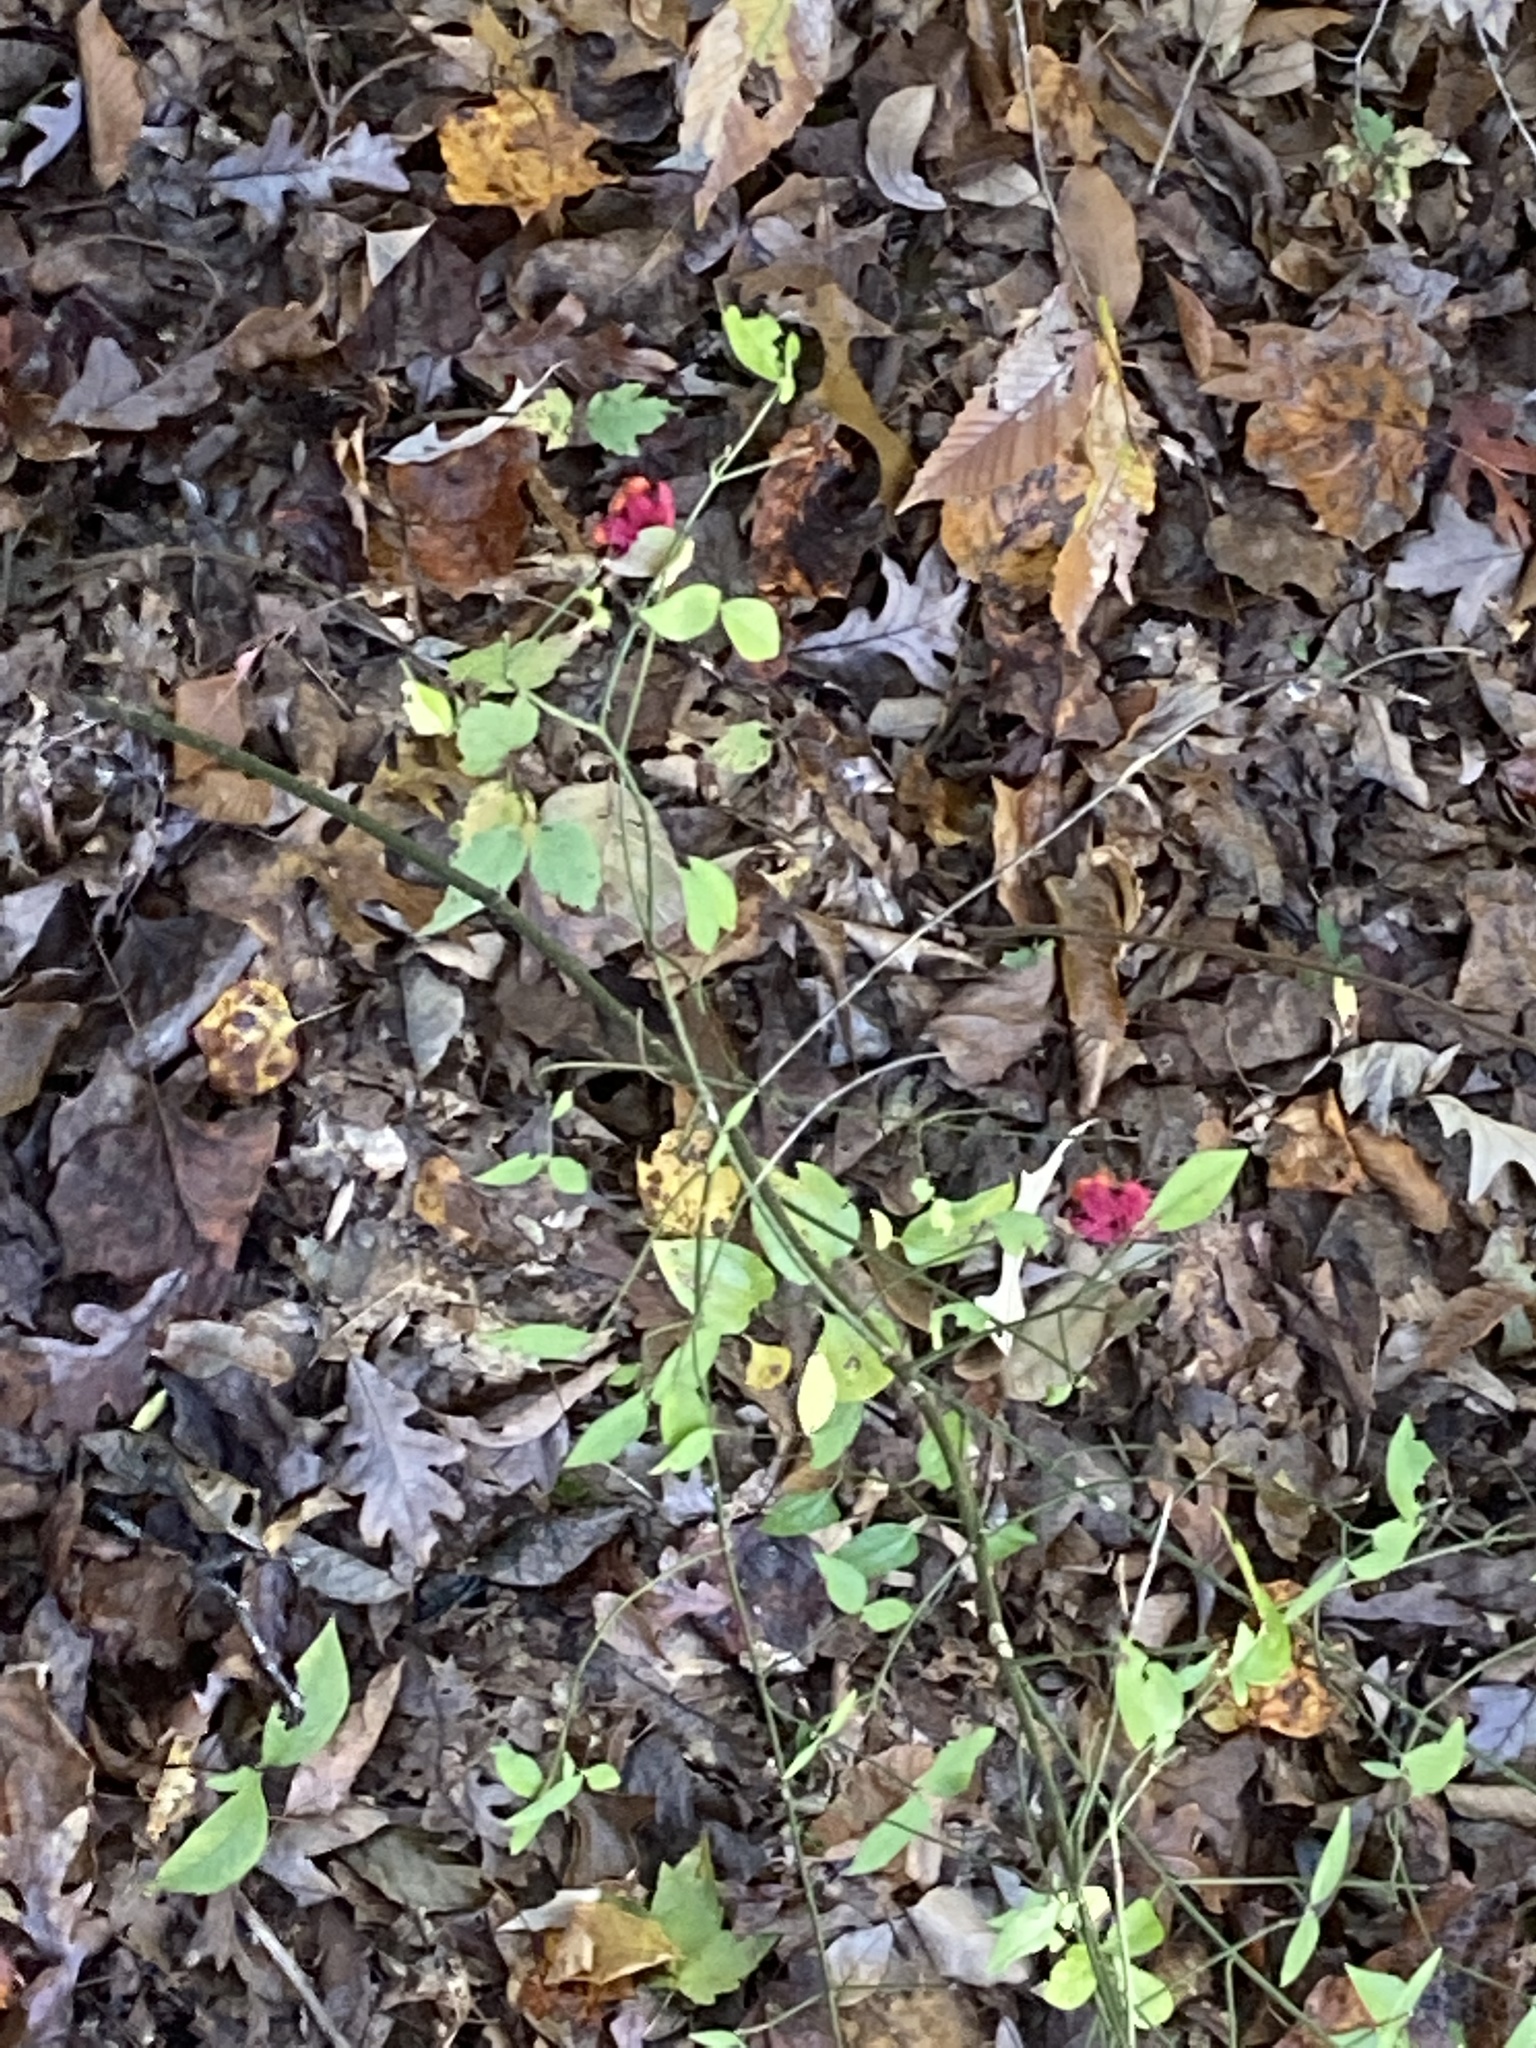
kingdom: Plantae
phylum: Tracheophyta
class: Magnoliopsida
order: Celastrales
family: Celastraceae
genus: Euonymus
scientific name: Euonymus americanus
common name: Bursting-heart
